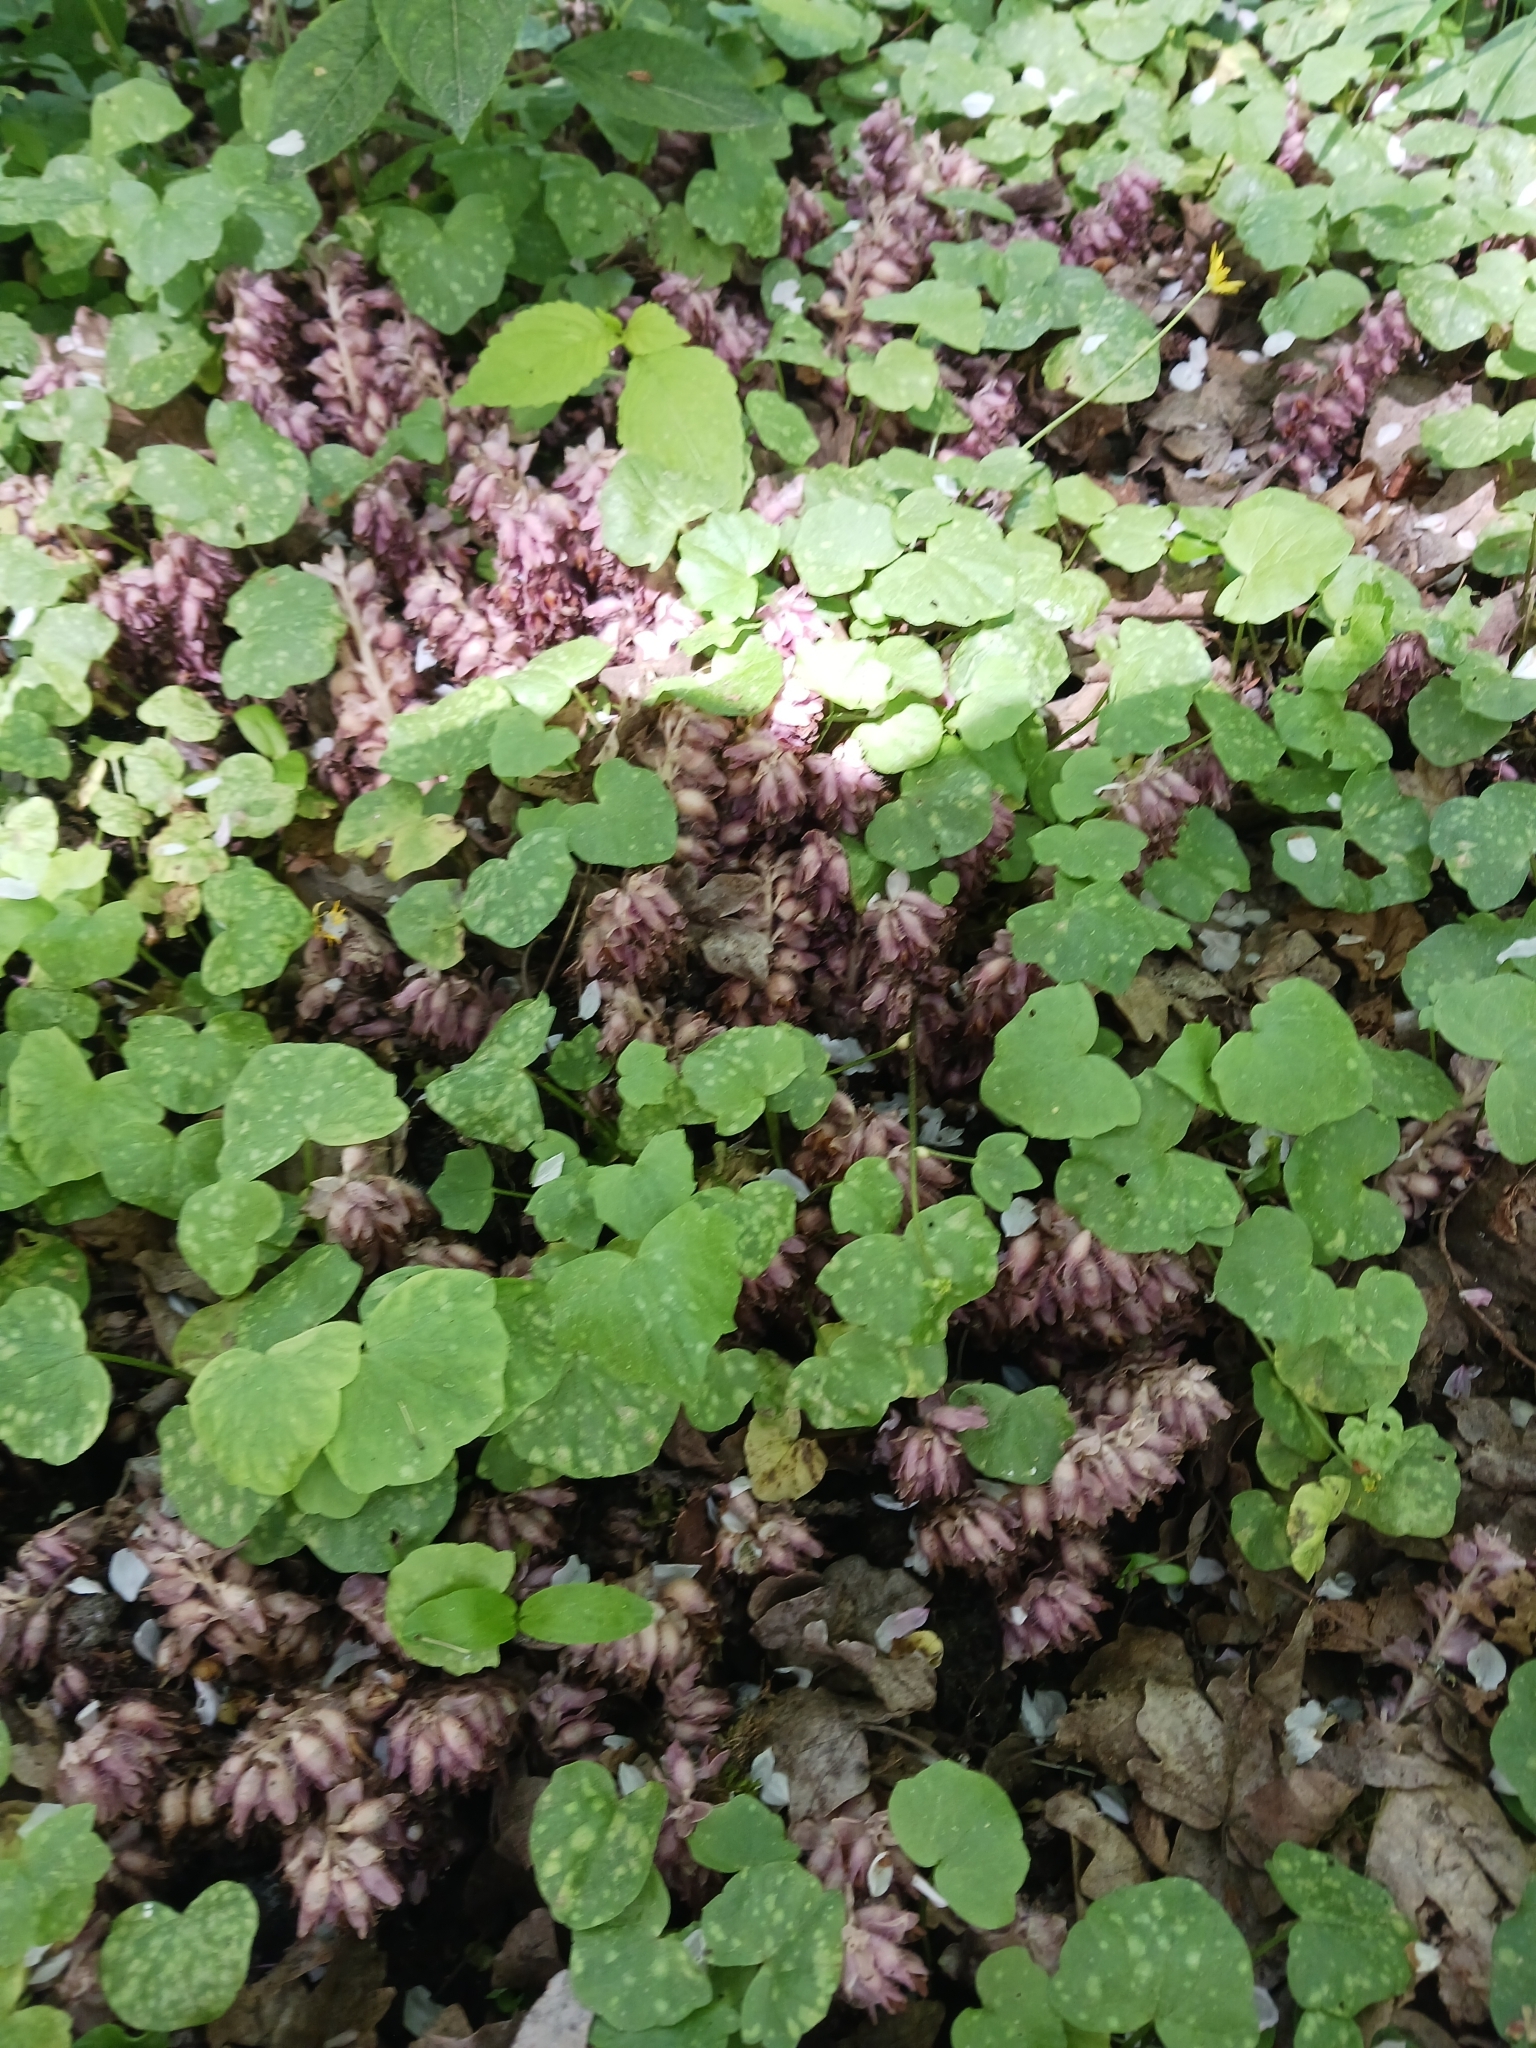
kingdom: Plantae
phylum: Tracheophyta
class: Magnoliopsida
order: Lamiales
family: Orobanchaceae
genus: Lathraea
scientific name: Lathraea squamaria
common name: Toothwort
